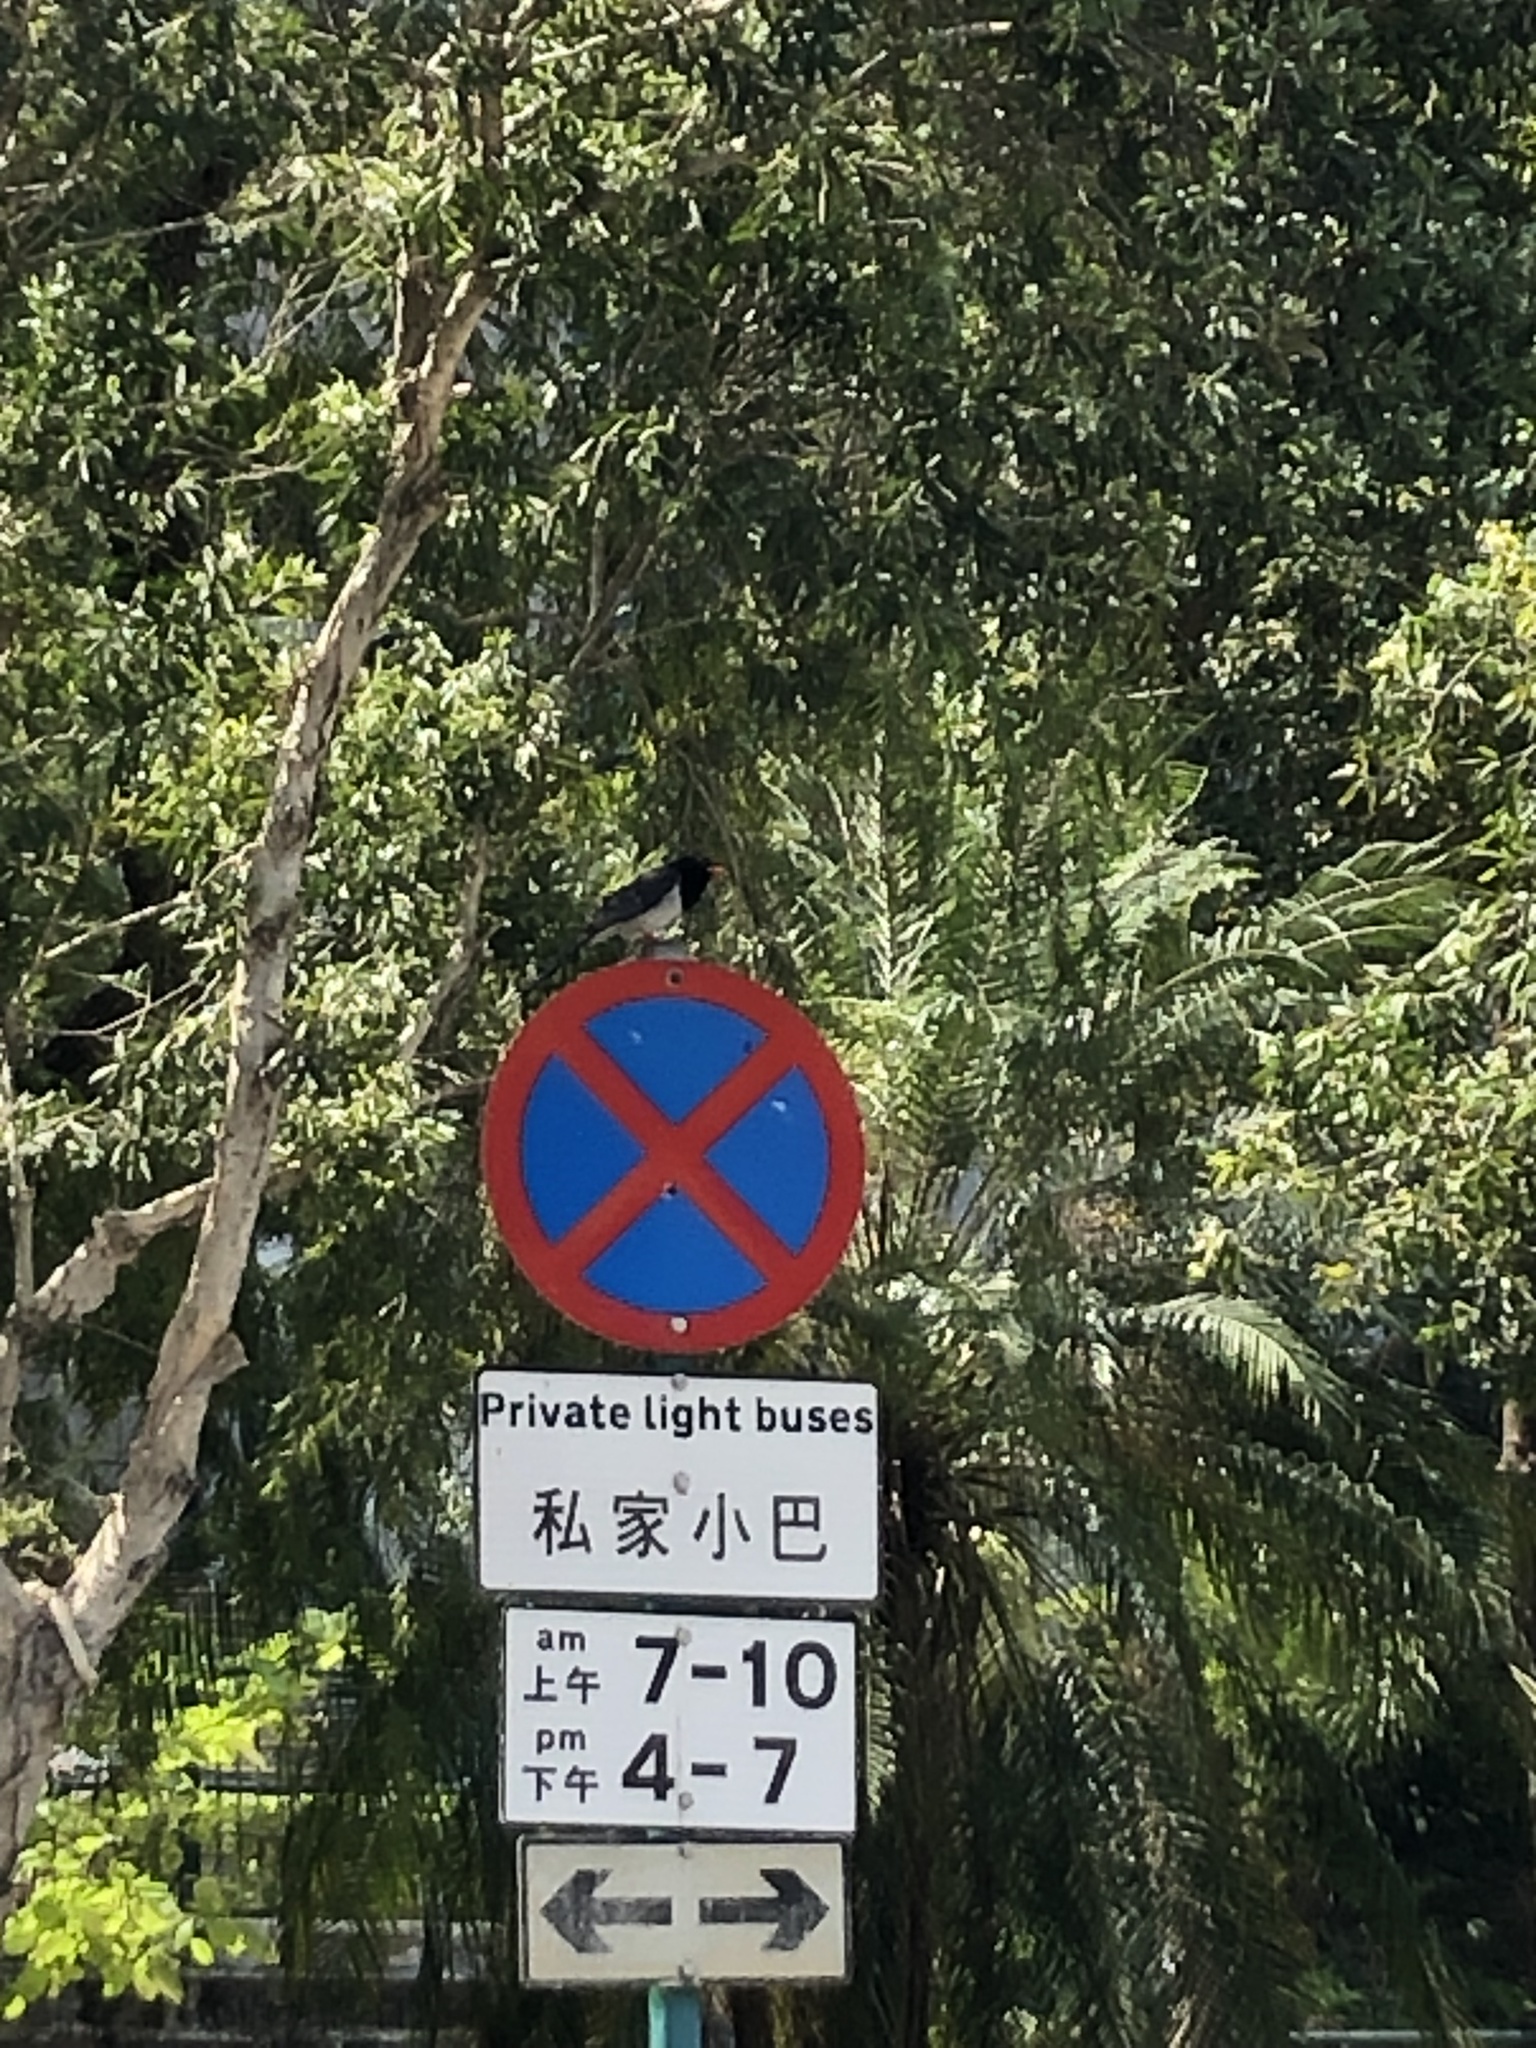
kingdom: Animalia
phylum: Chordata
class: Aves
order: Passeriformes
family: Corvidae
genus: Urocissa
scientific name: Urocissa erythroryncha
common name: Red-billed blue magpie
